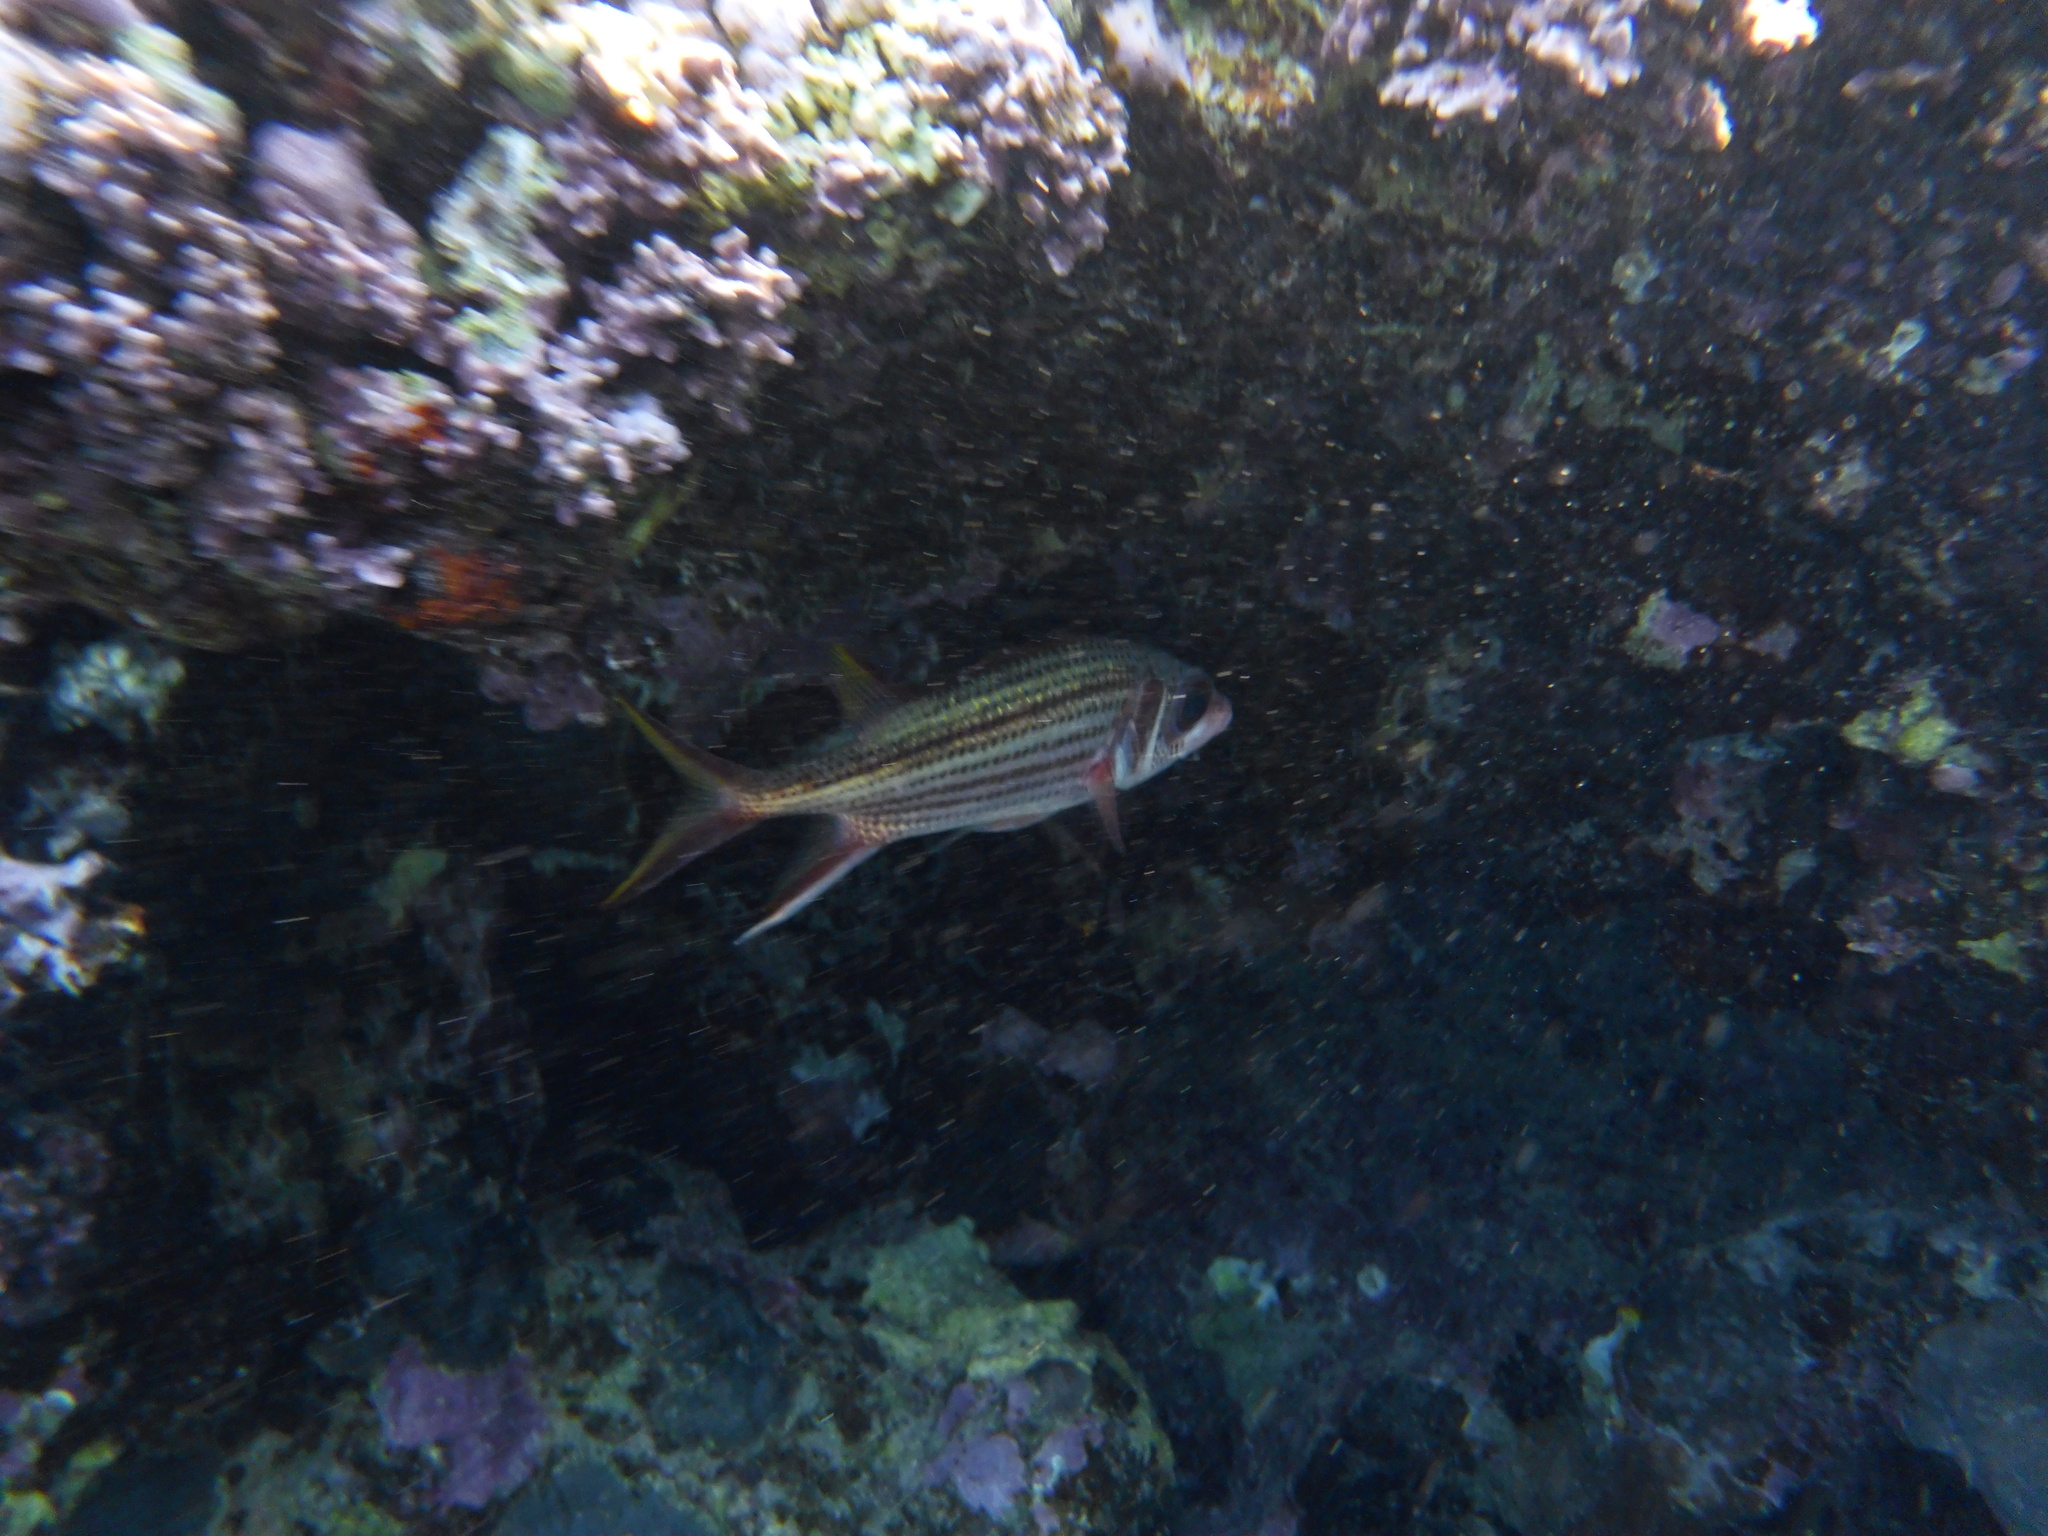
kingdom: Animalia
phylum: Chordata
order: Beryciformes
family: Holocentridae
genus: Neoniphon
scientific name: Neoniphon sammara
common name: Sammara squirrelfish
